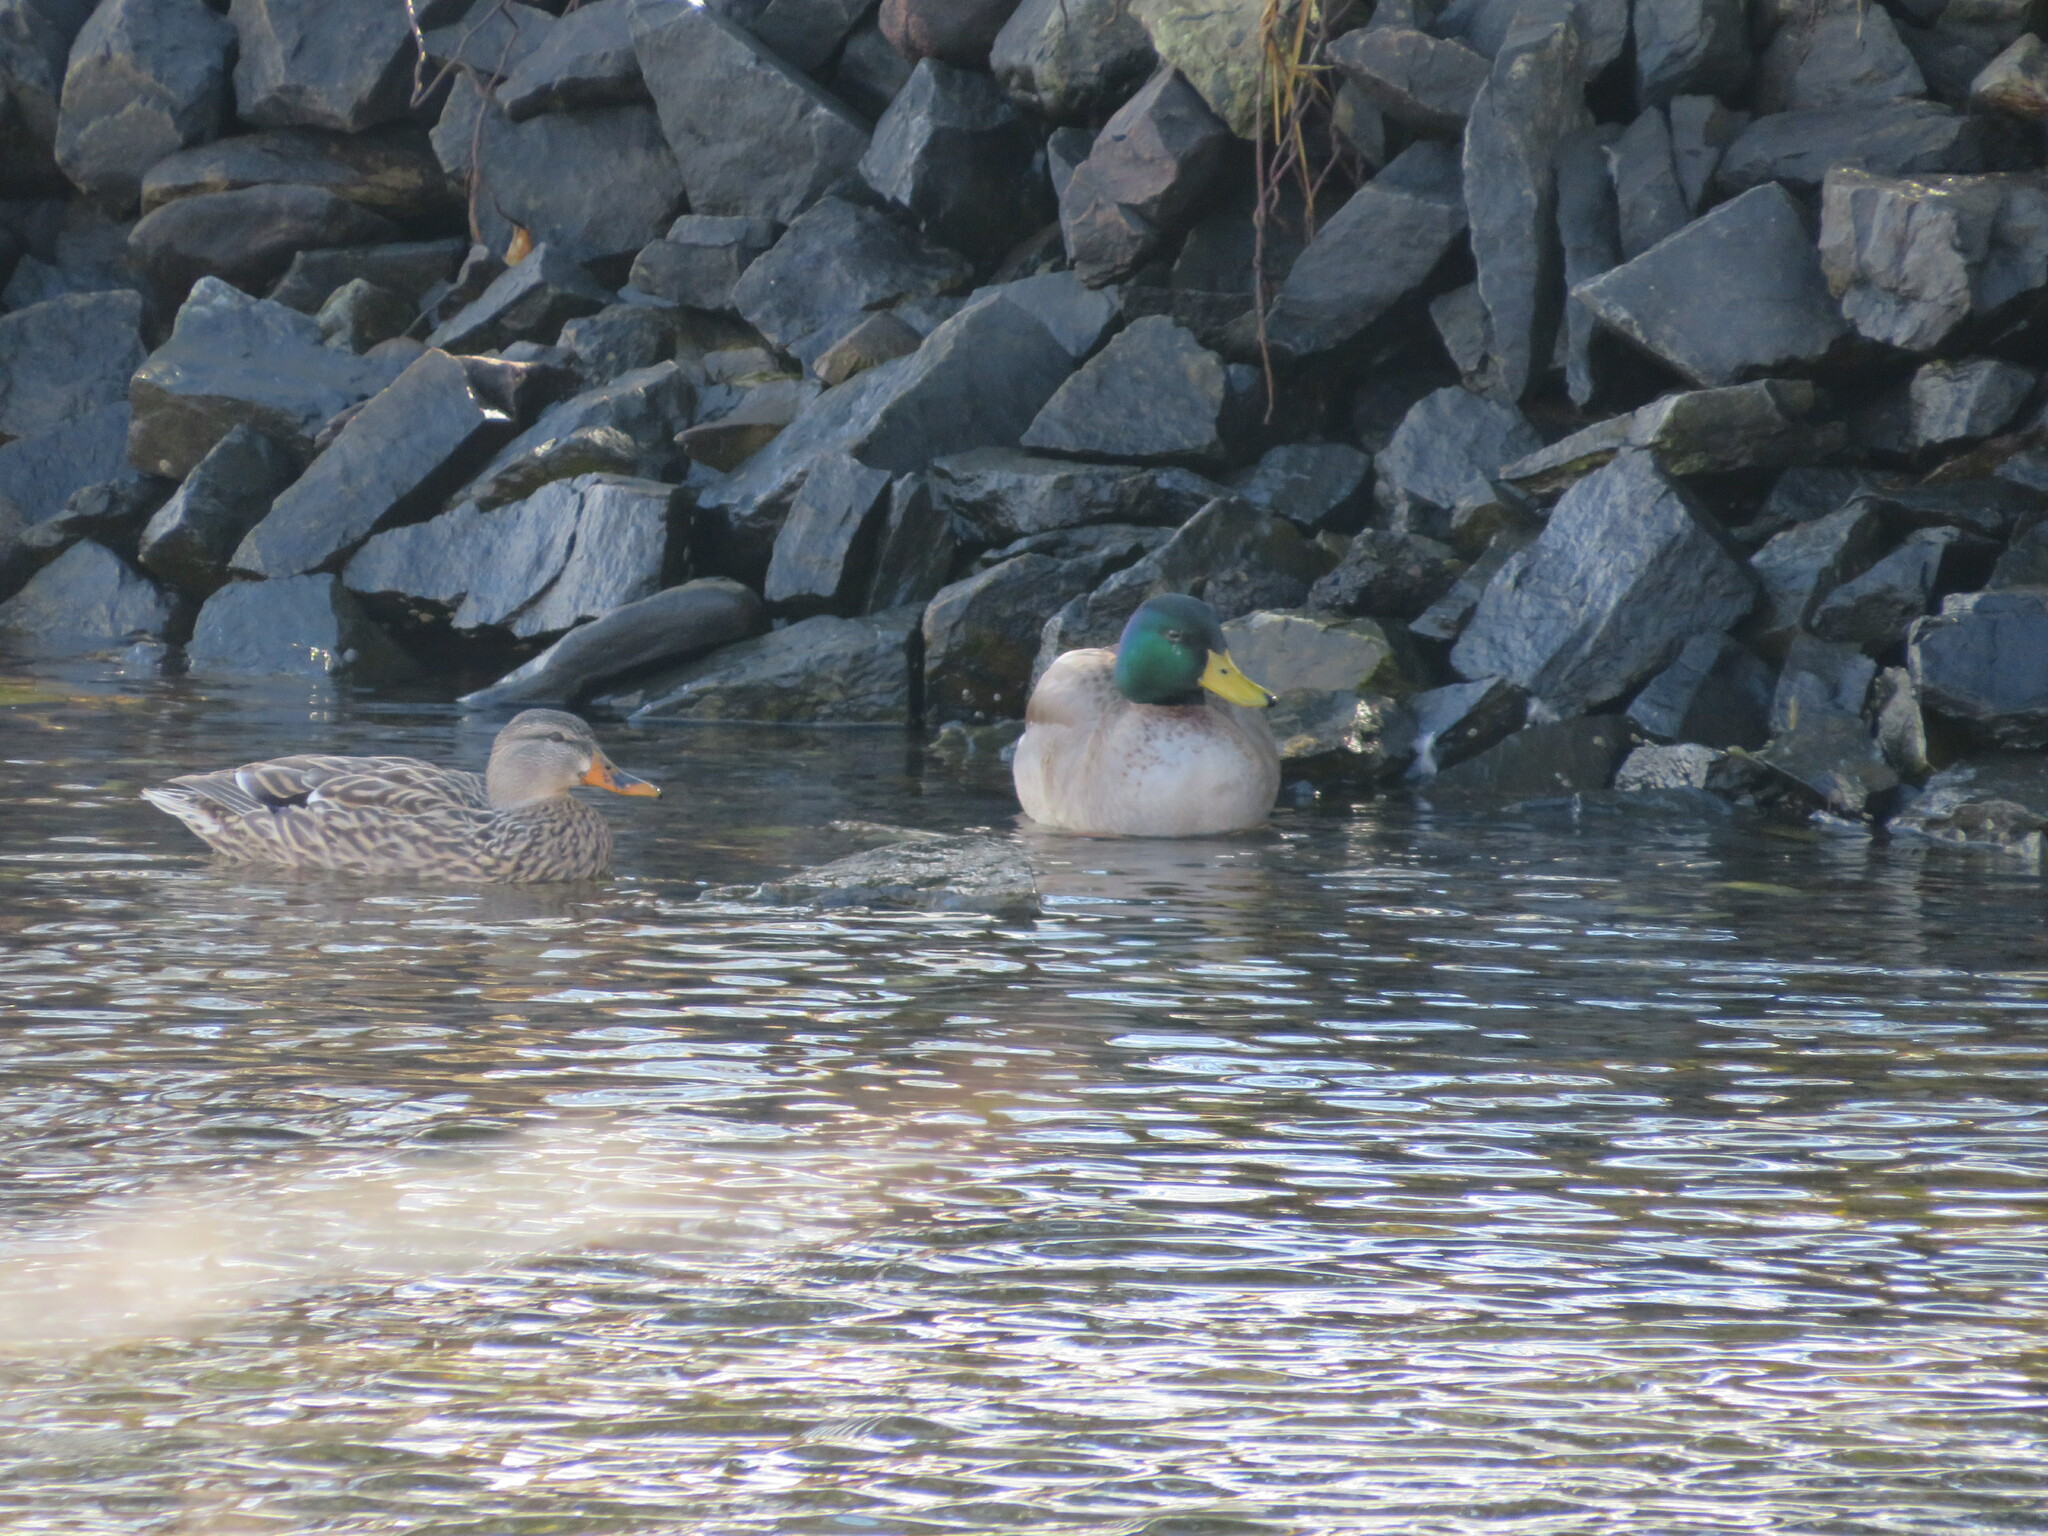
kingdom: Animalia
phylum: Chordata
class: Aves
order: Anseriformes
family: Anatidae
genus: Anas
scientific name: Anas platyrhynchos
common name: Mallard
